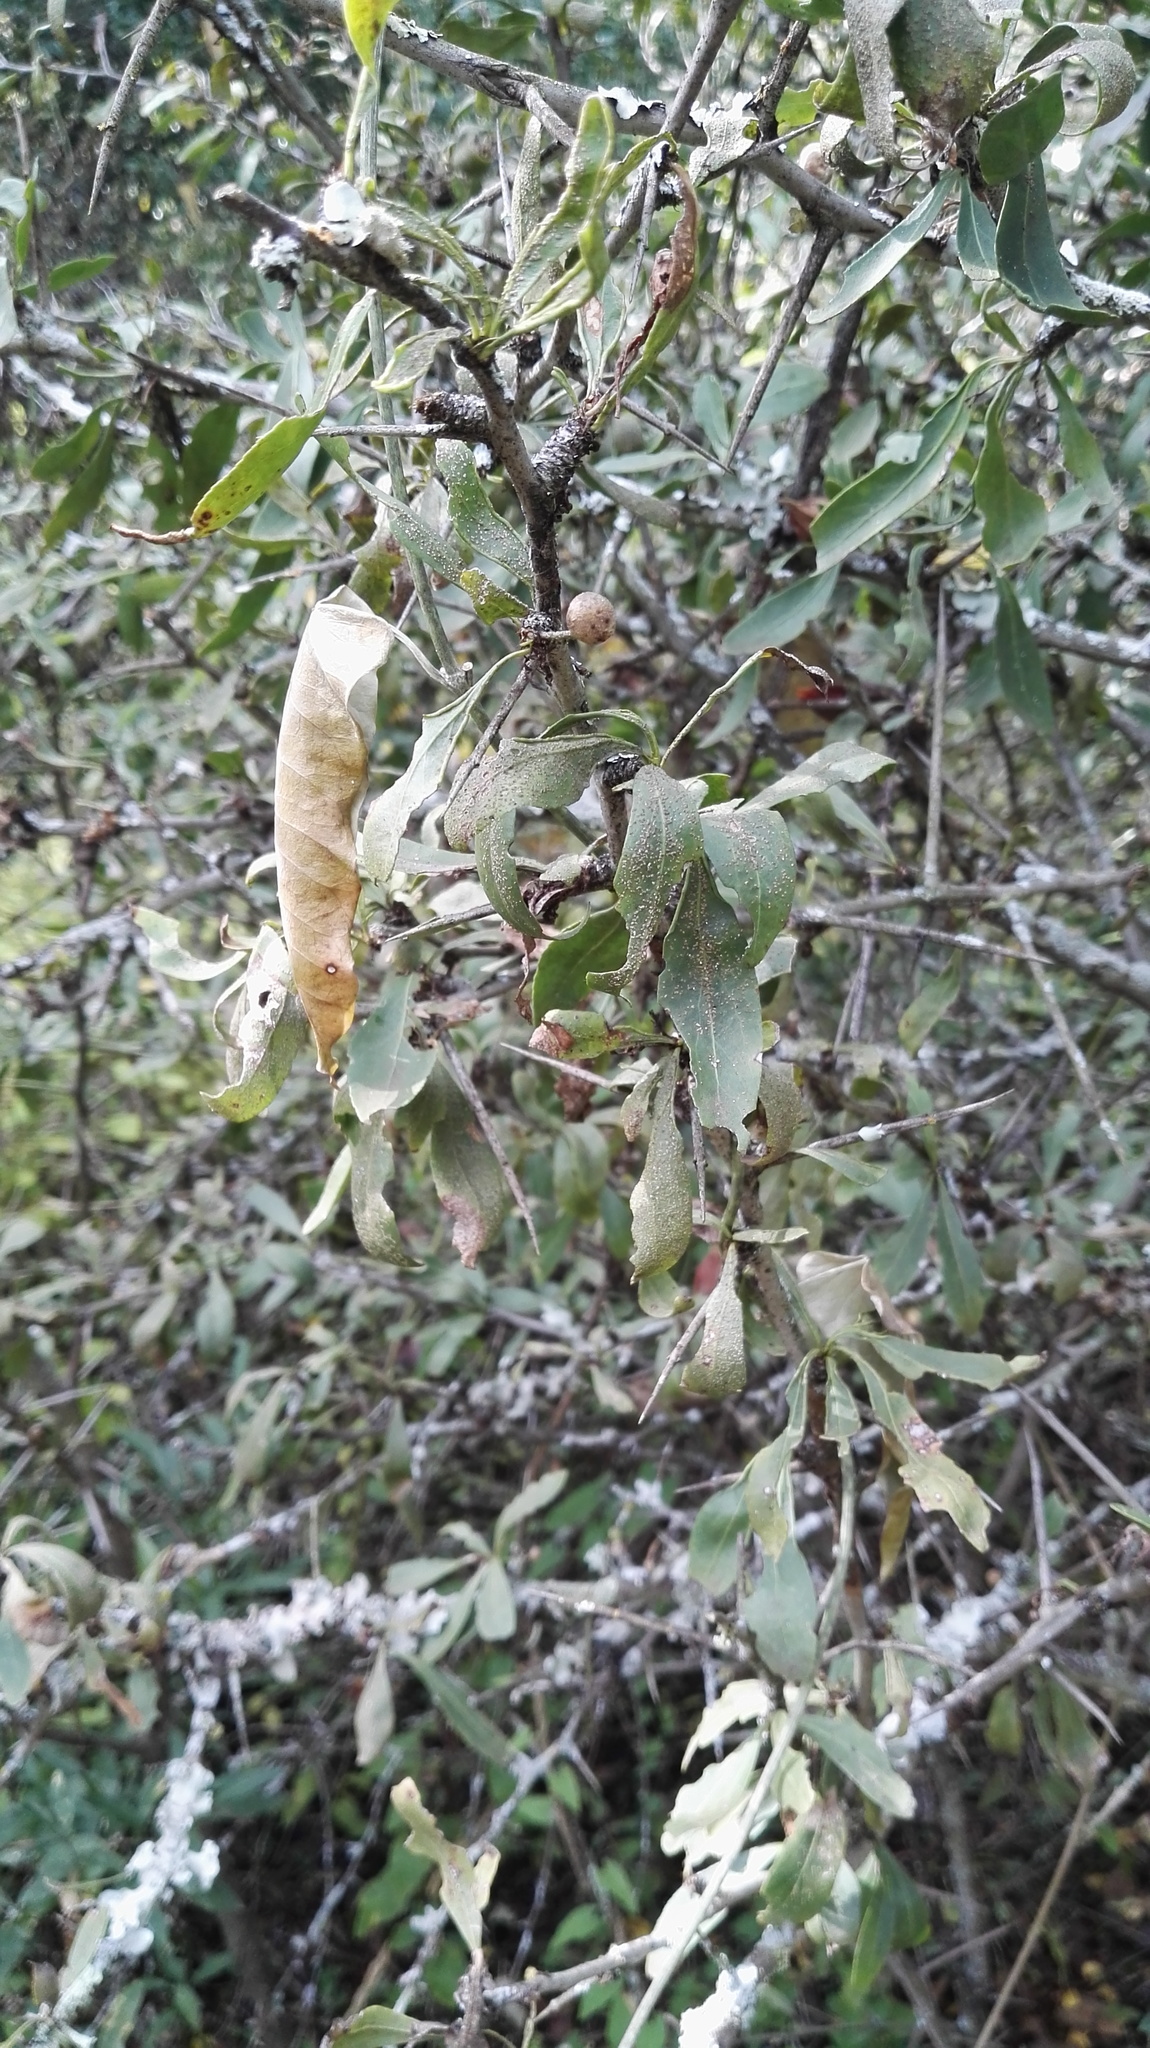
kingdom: Plantae
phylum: Tracheophyta
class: Magnoliopsida
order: Celastrales
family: Celastraceae
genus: Gymnosporia
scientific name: Gymnosporia buxifolia
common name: Common spike-thorn
